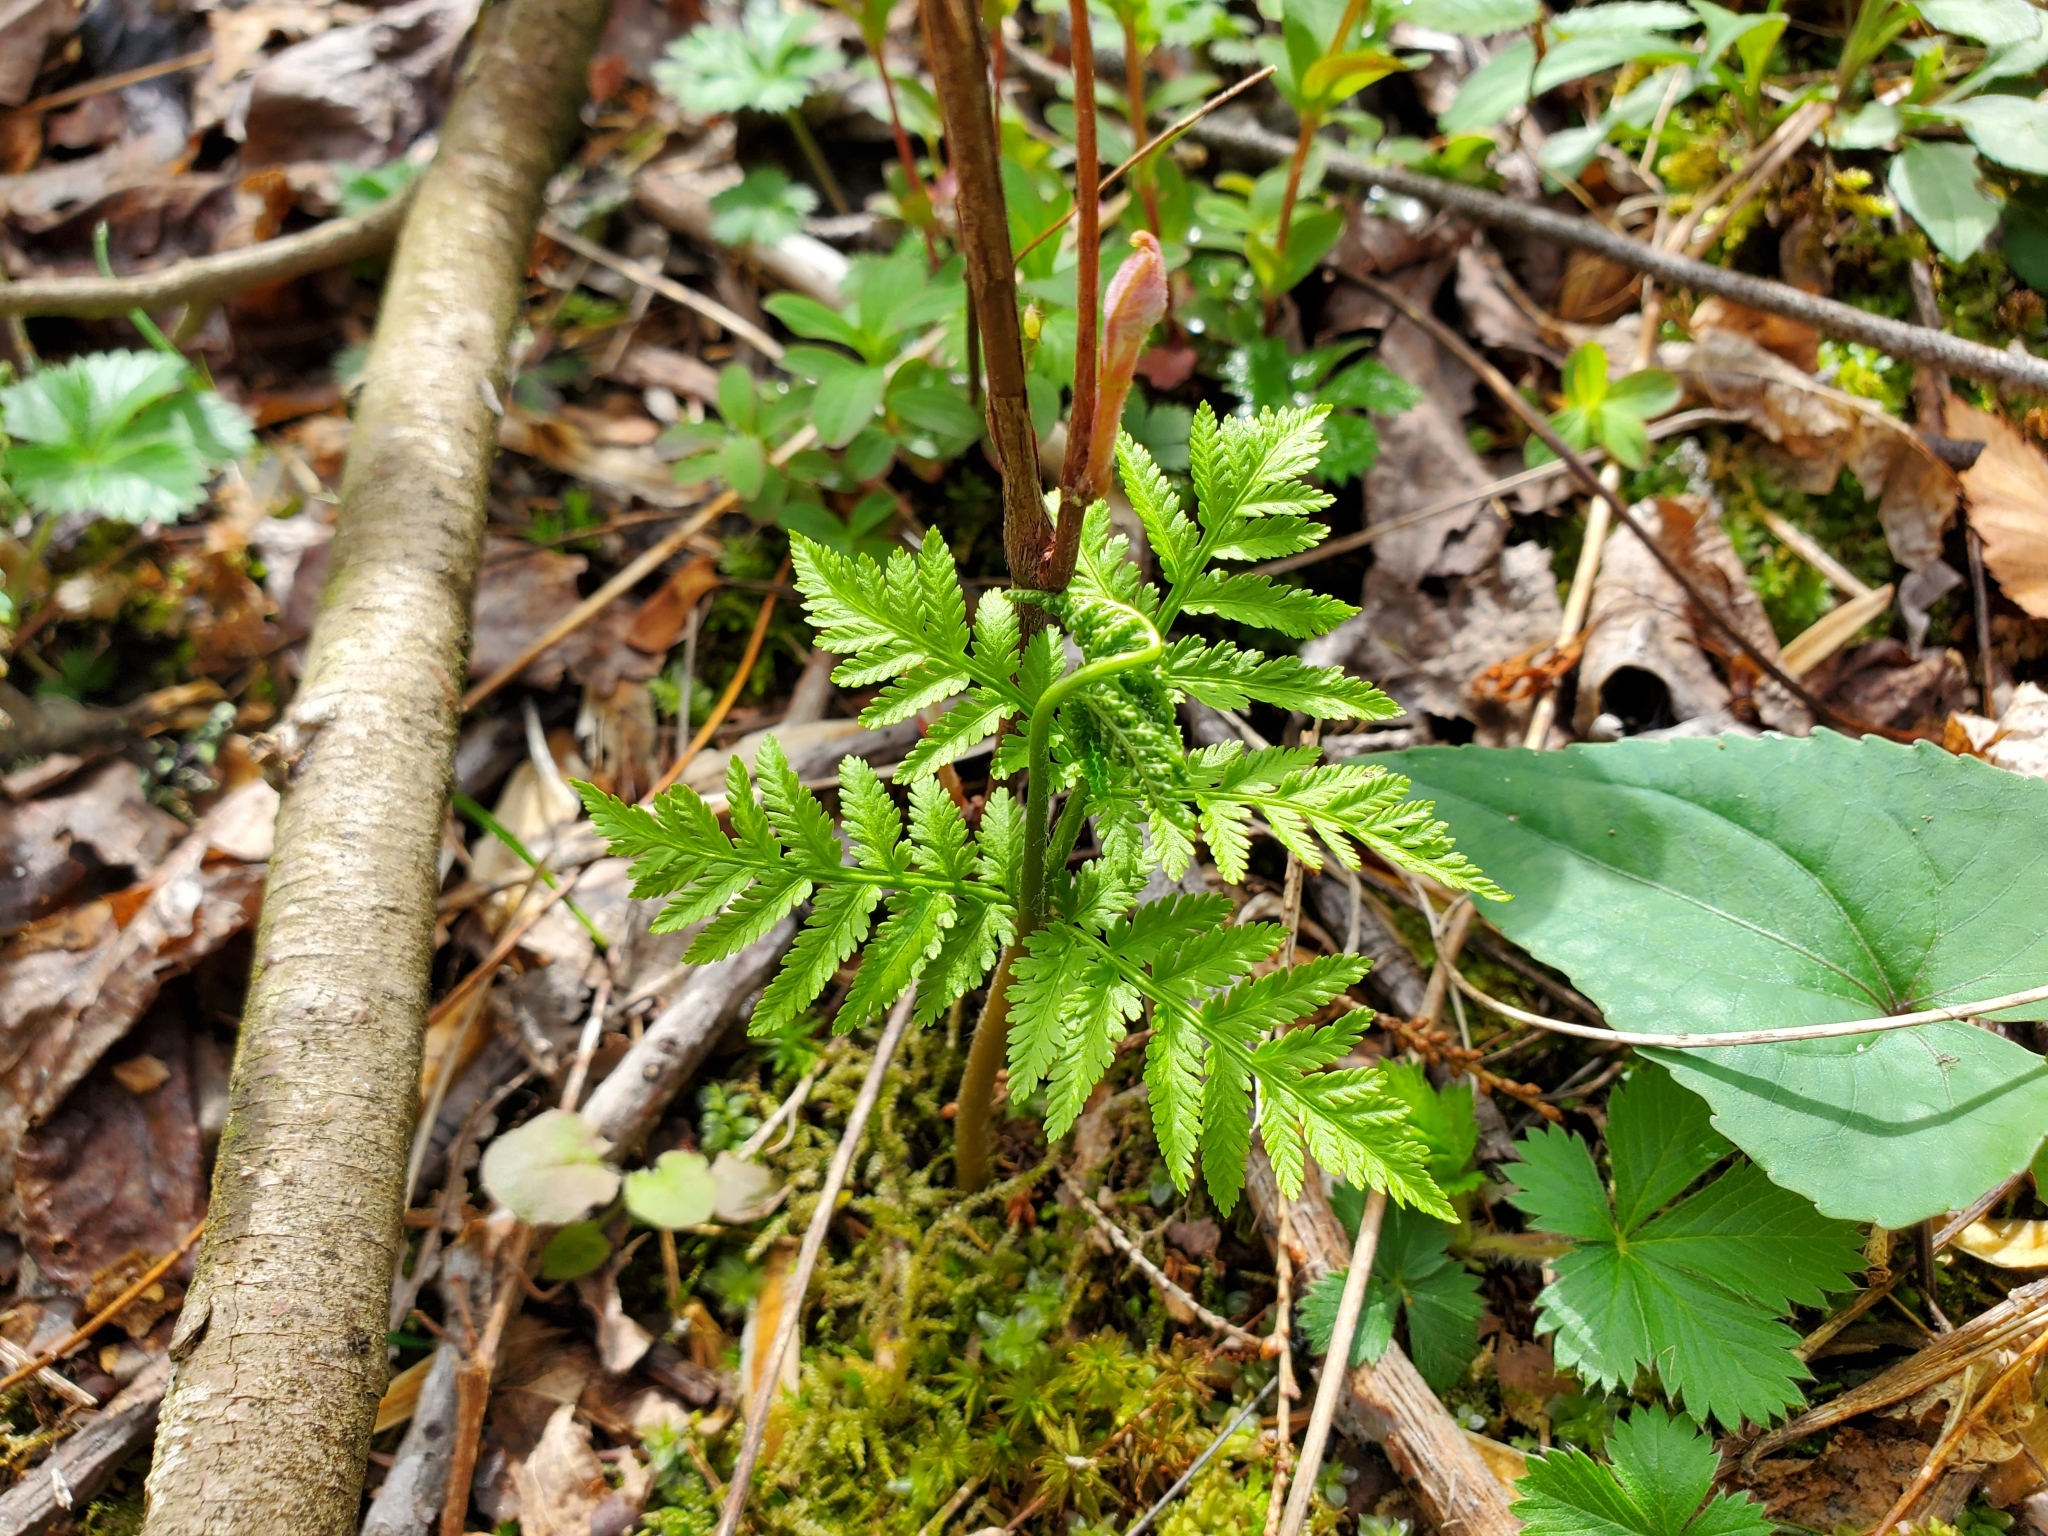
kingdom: Plantae
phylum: Tracheophyta
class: Polypodiopsida
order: Ophioglossales
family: Ophioglossaceae
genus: Botrypus
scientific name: Botrypus virginianus
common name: Common grapefern
